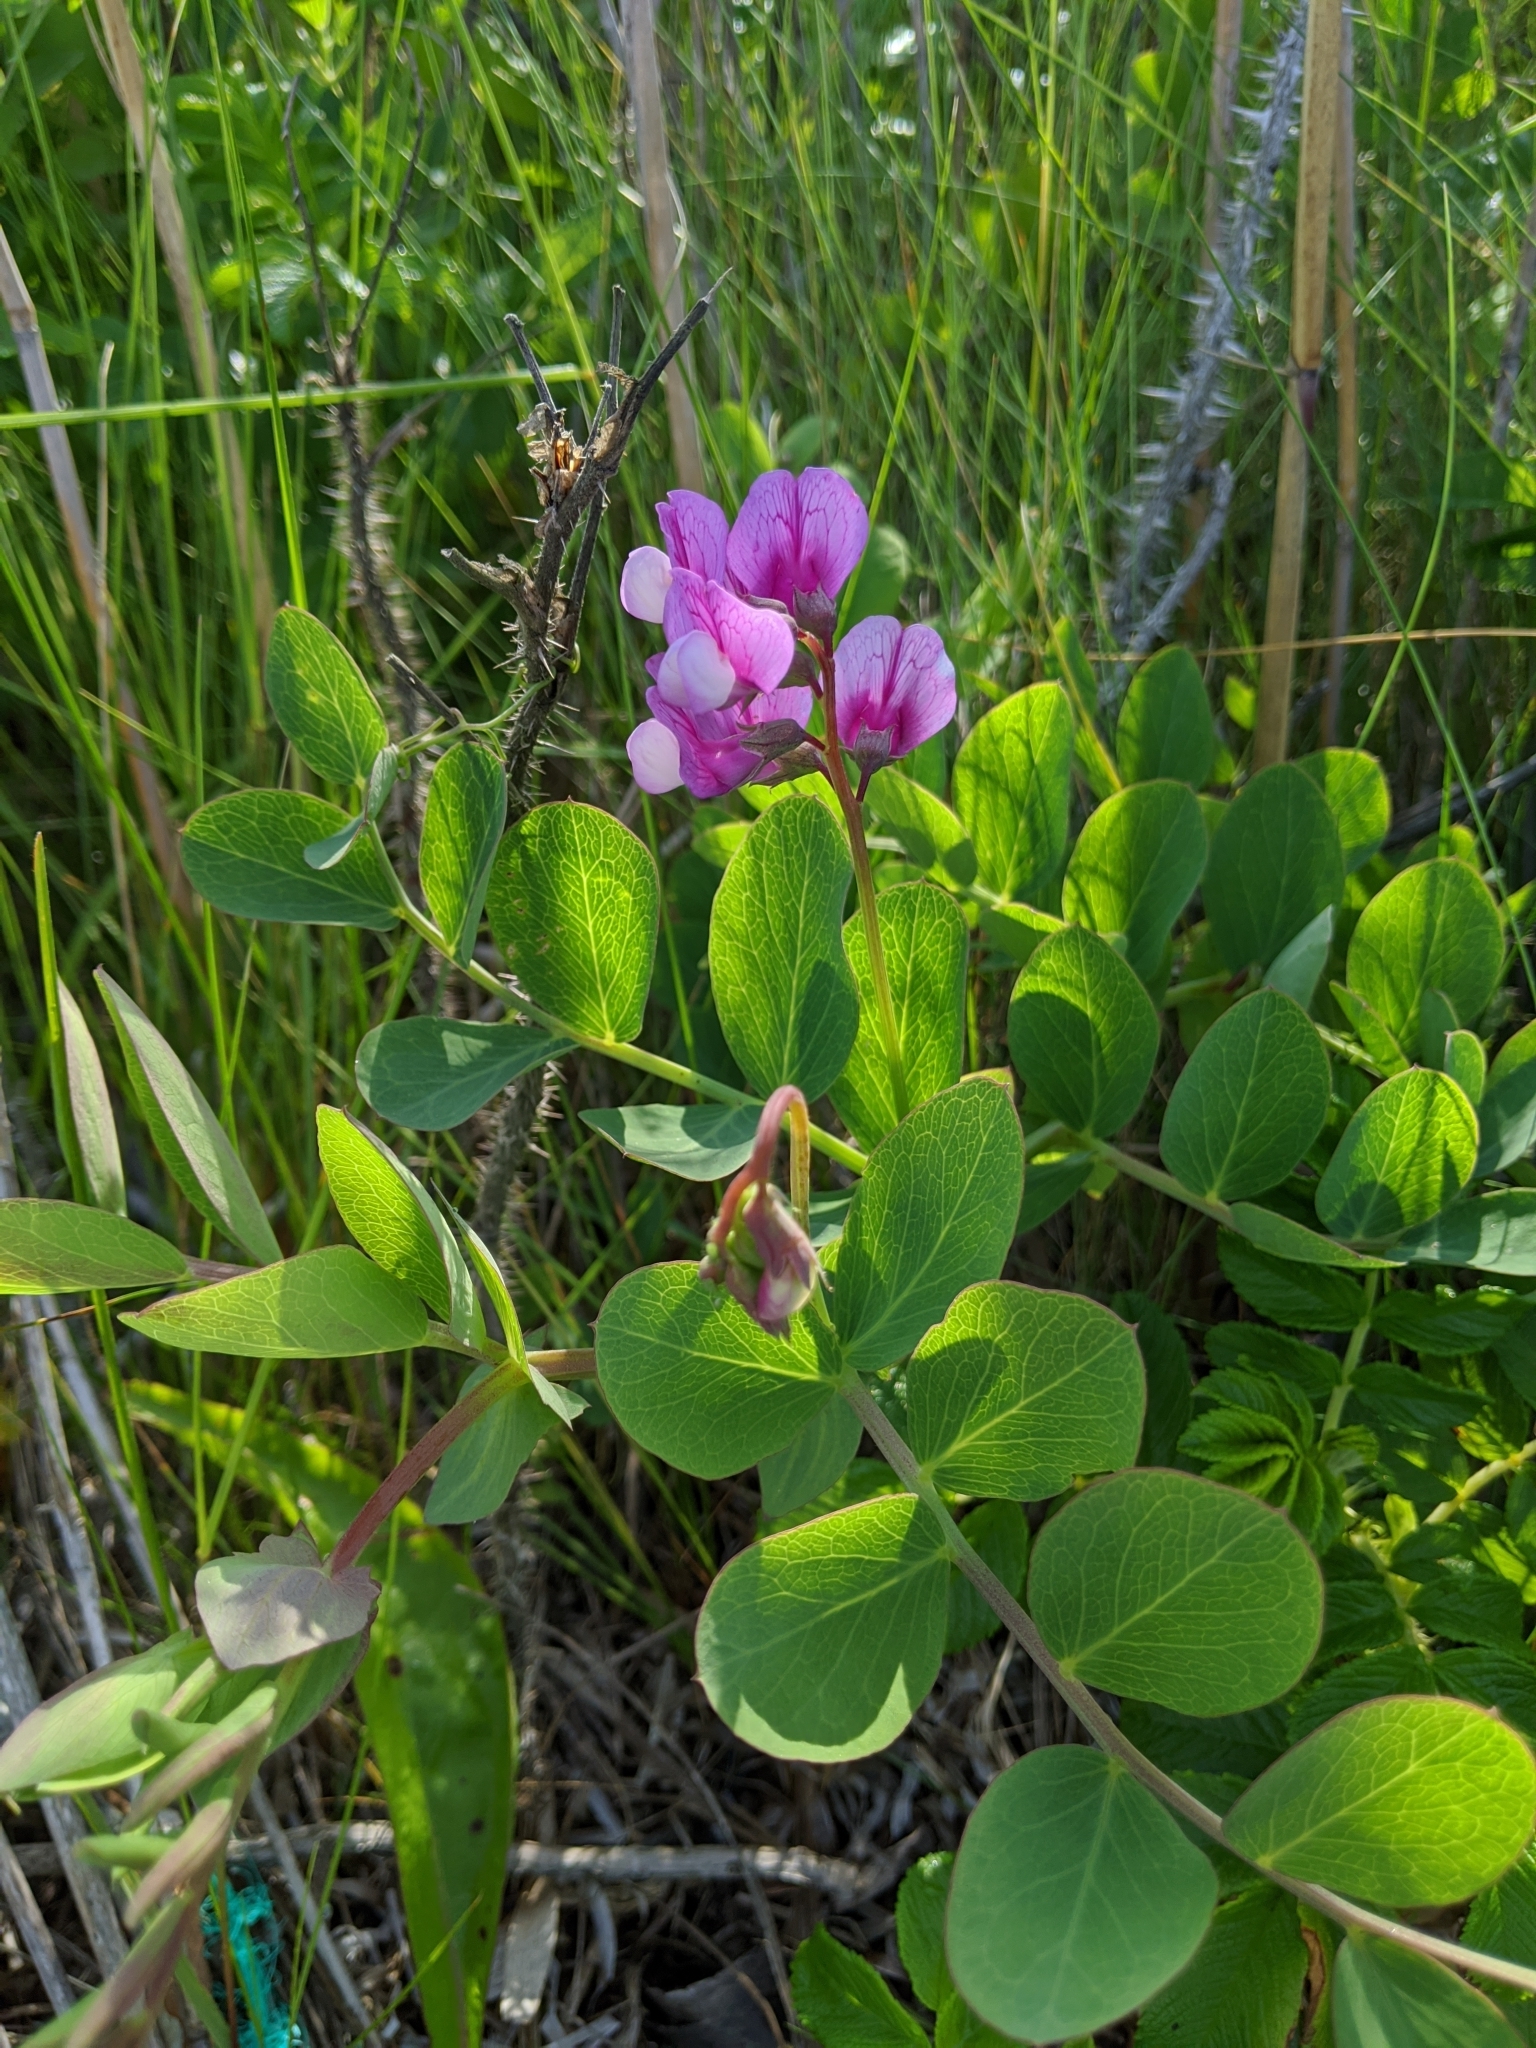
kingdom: Plantae
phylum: Tracheophyta
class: Magnoliopsida
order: Fabales
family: Fabaceae
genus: Lathyrus
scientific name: Lathyrus japonicus
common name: Sea pea
